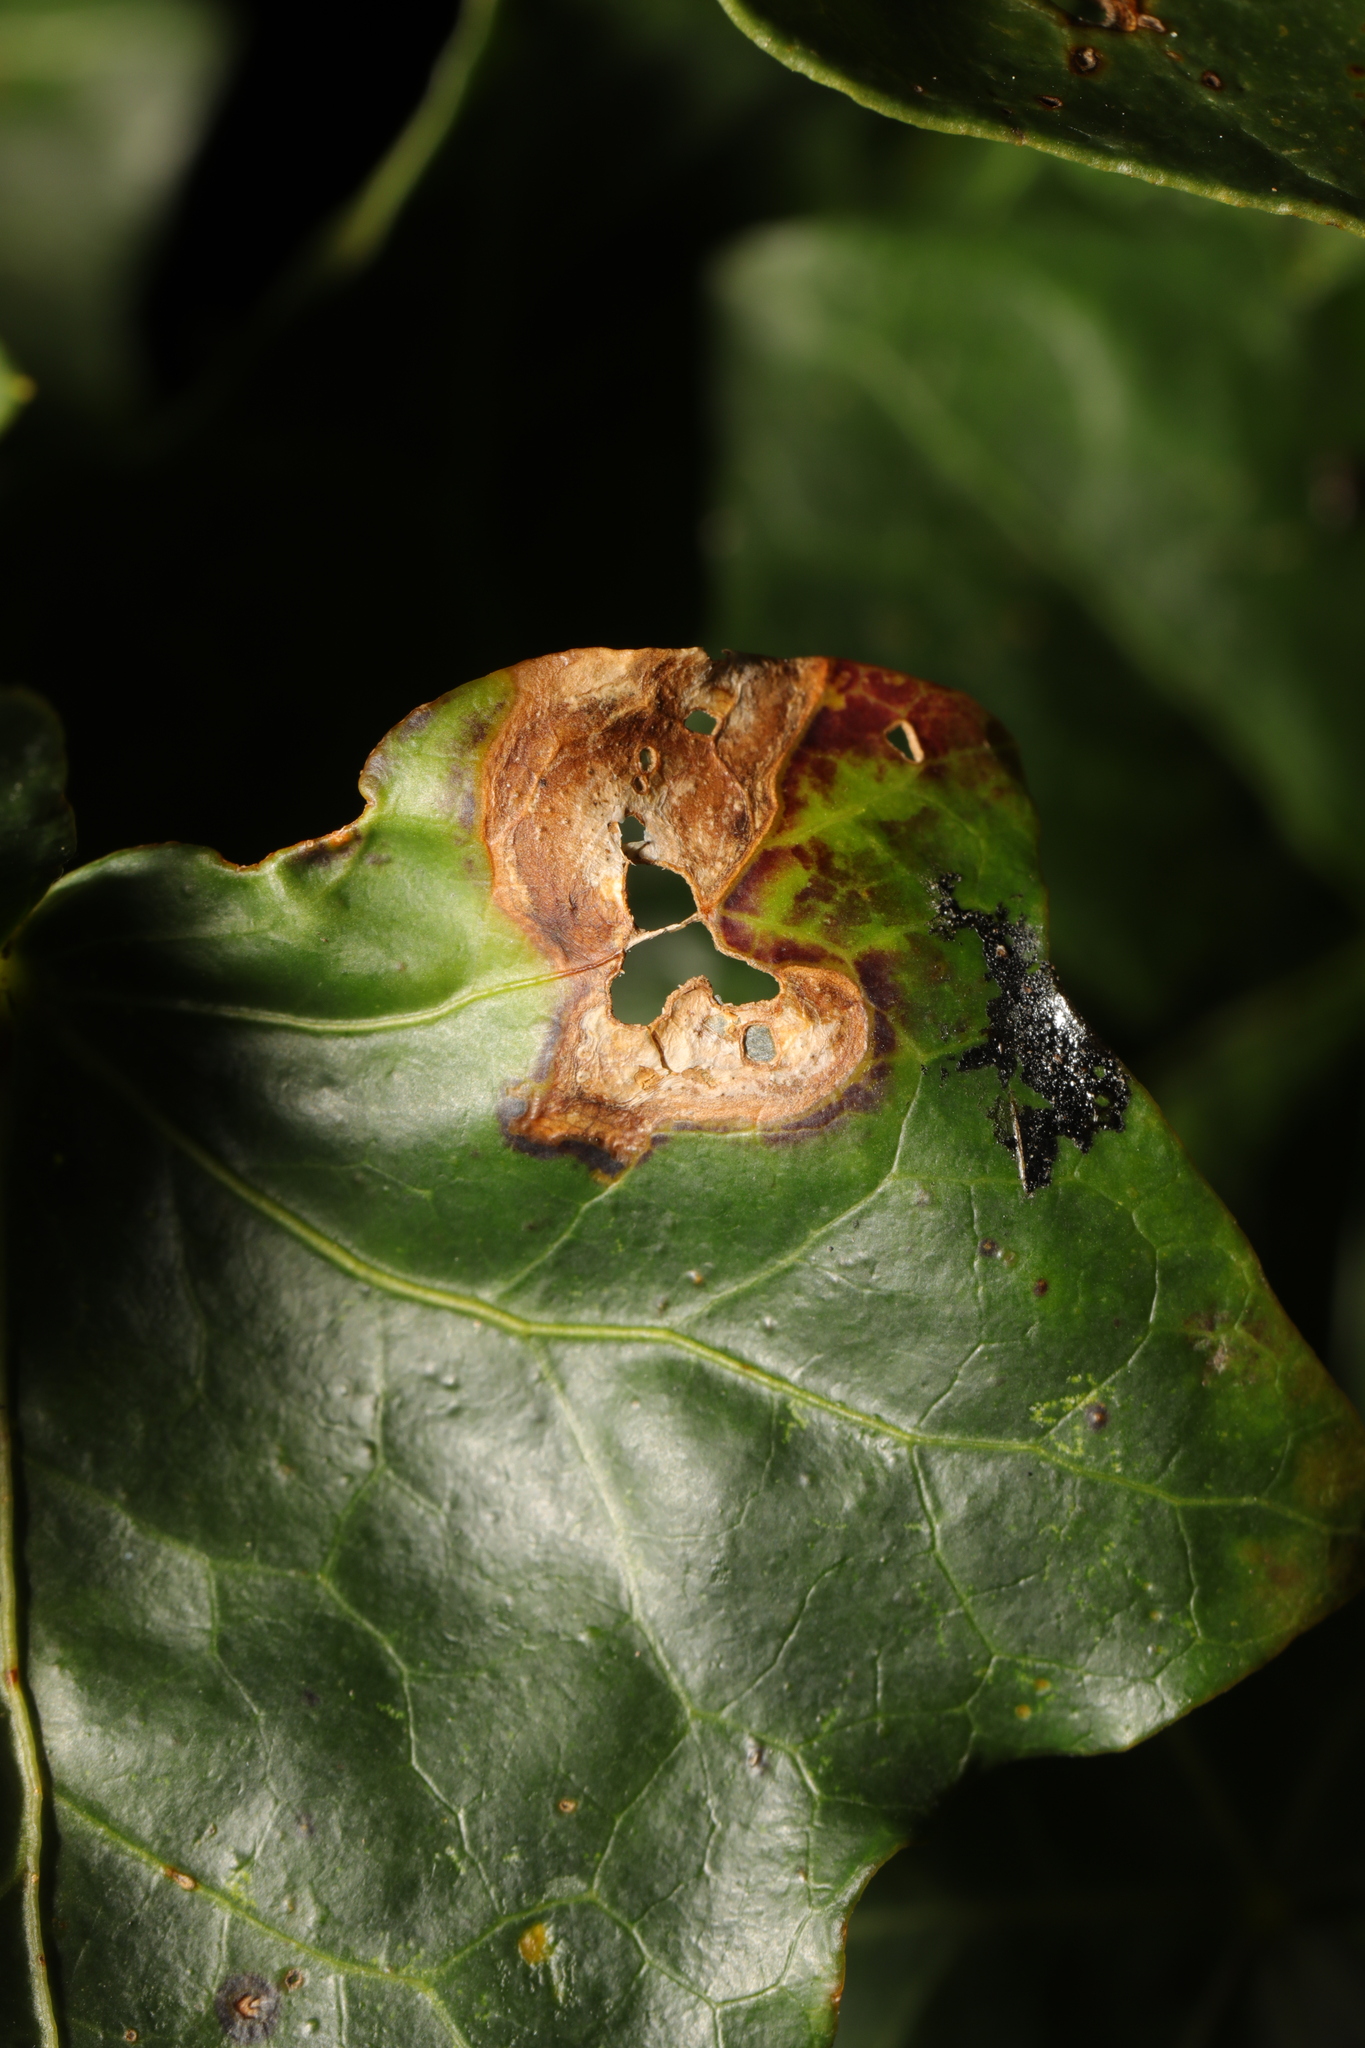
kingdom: Fungi
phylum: Ascomycota
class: Dothideomycetes
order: Pleosporales
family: Didymellaceae
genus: Boeremia
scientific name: Boeremia hedericola
